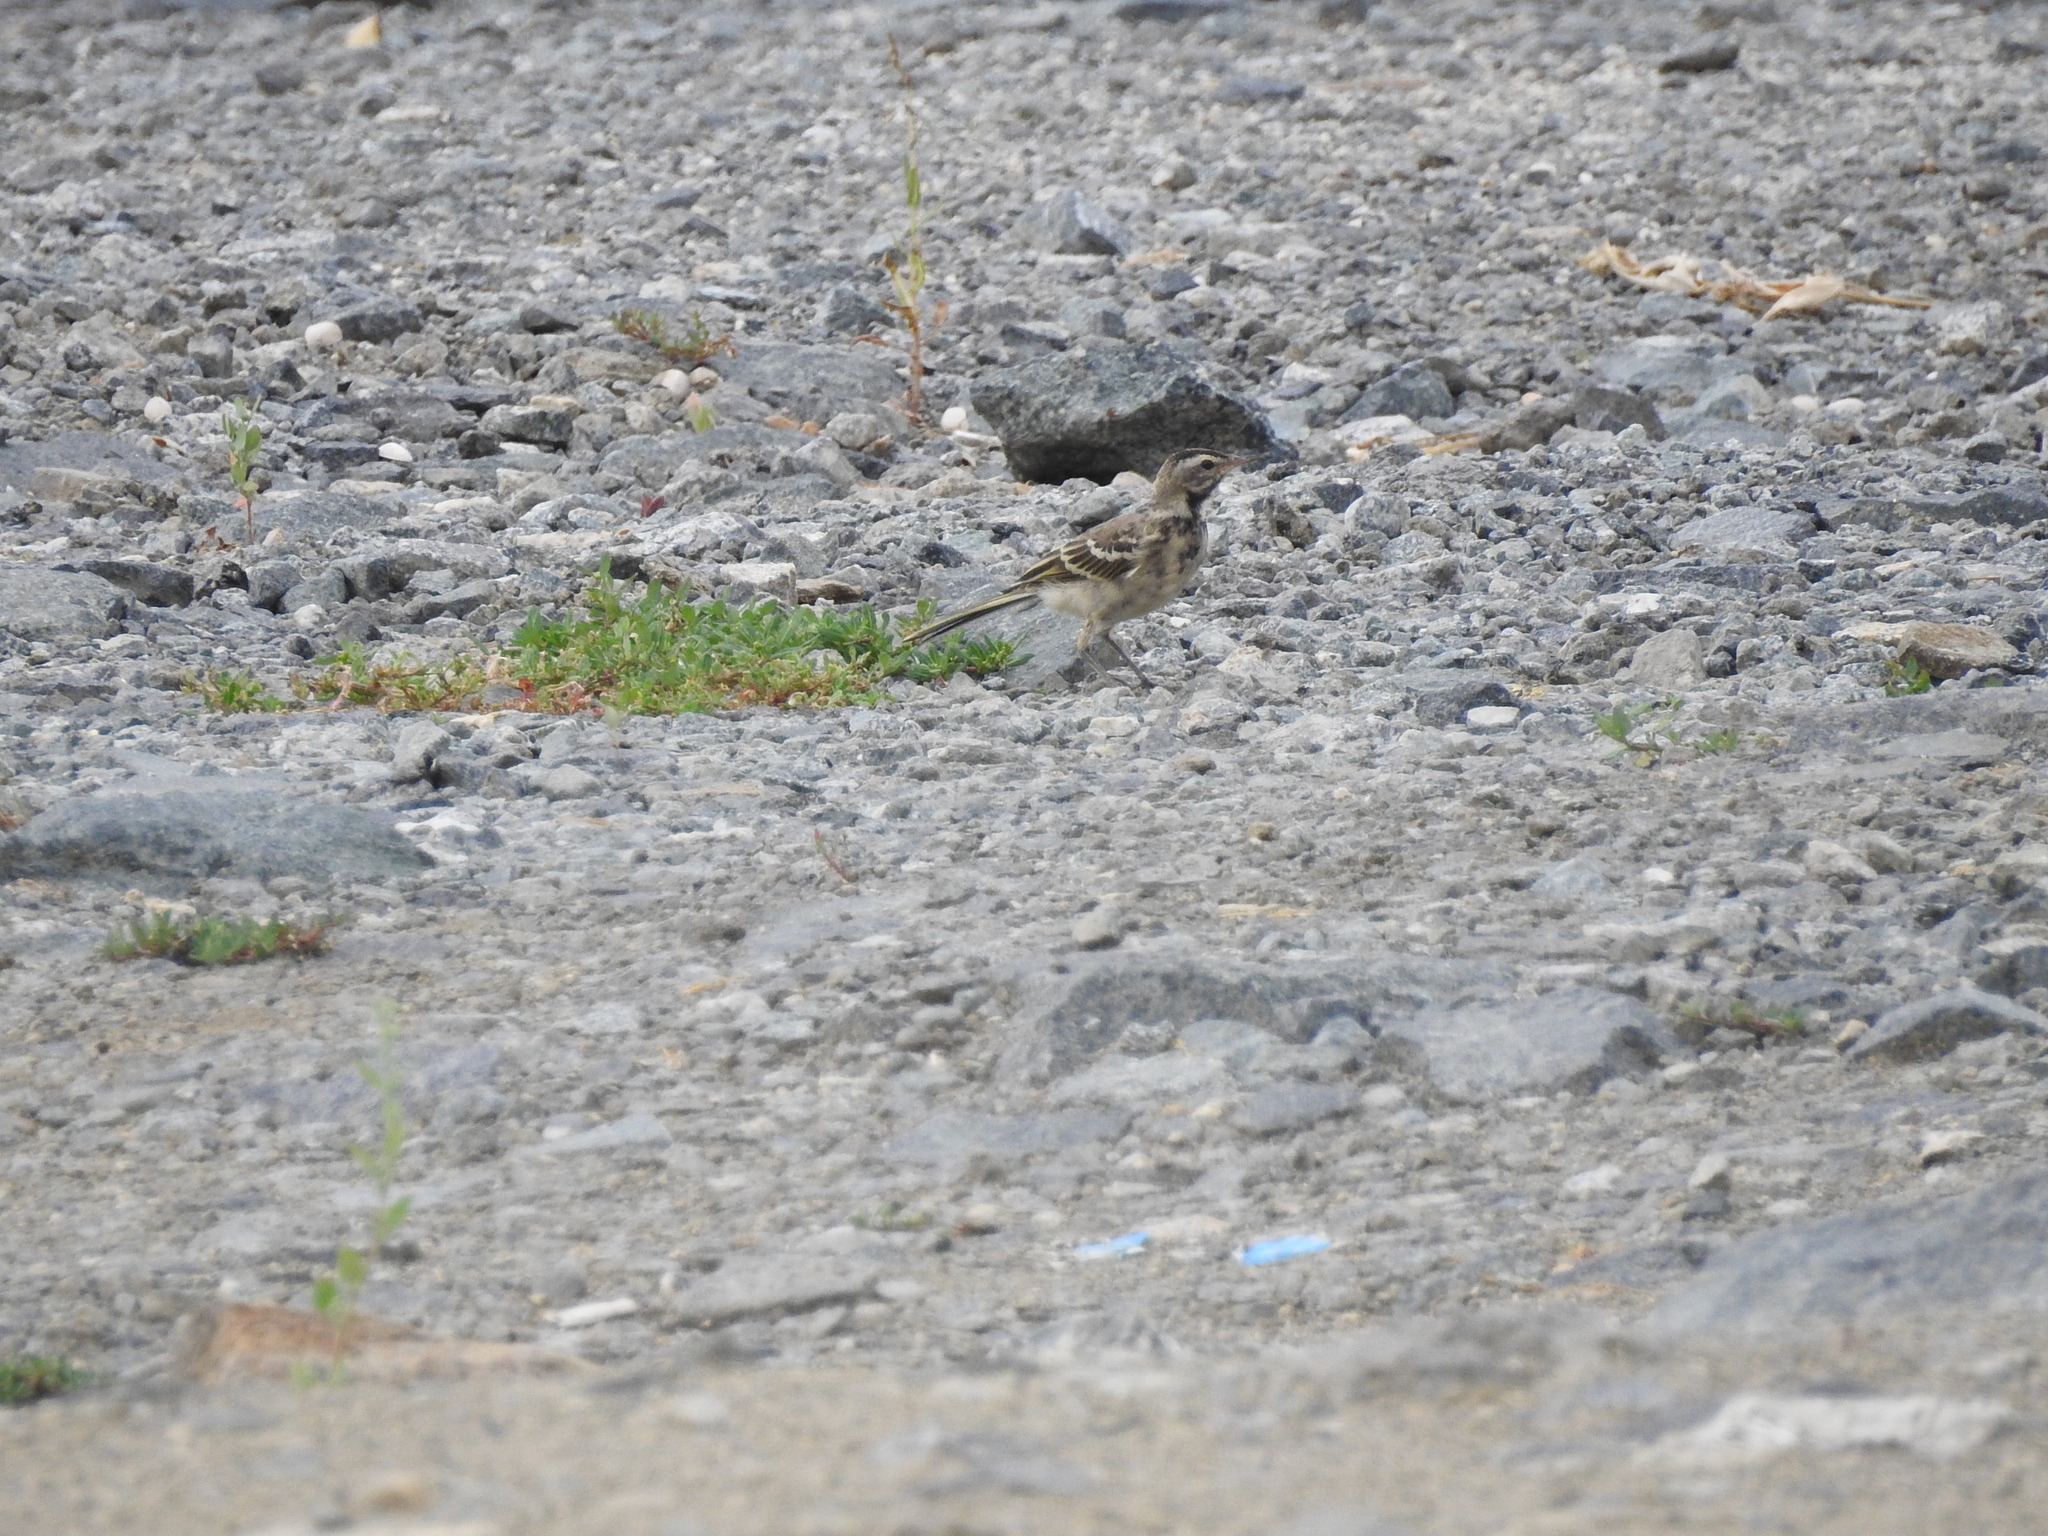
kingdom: Animalia
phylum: Chordata
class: Aves
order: Passeriformes
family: Motacillidae
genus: Motacilla
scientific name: Motacilla flava
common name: Western yellow wagtail
